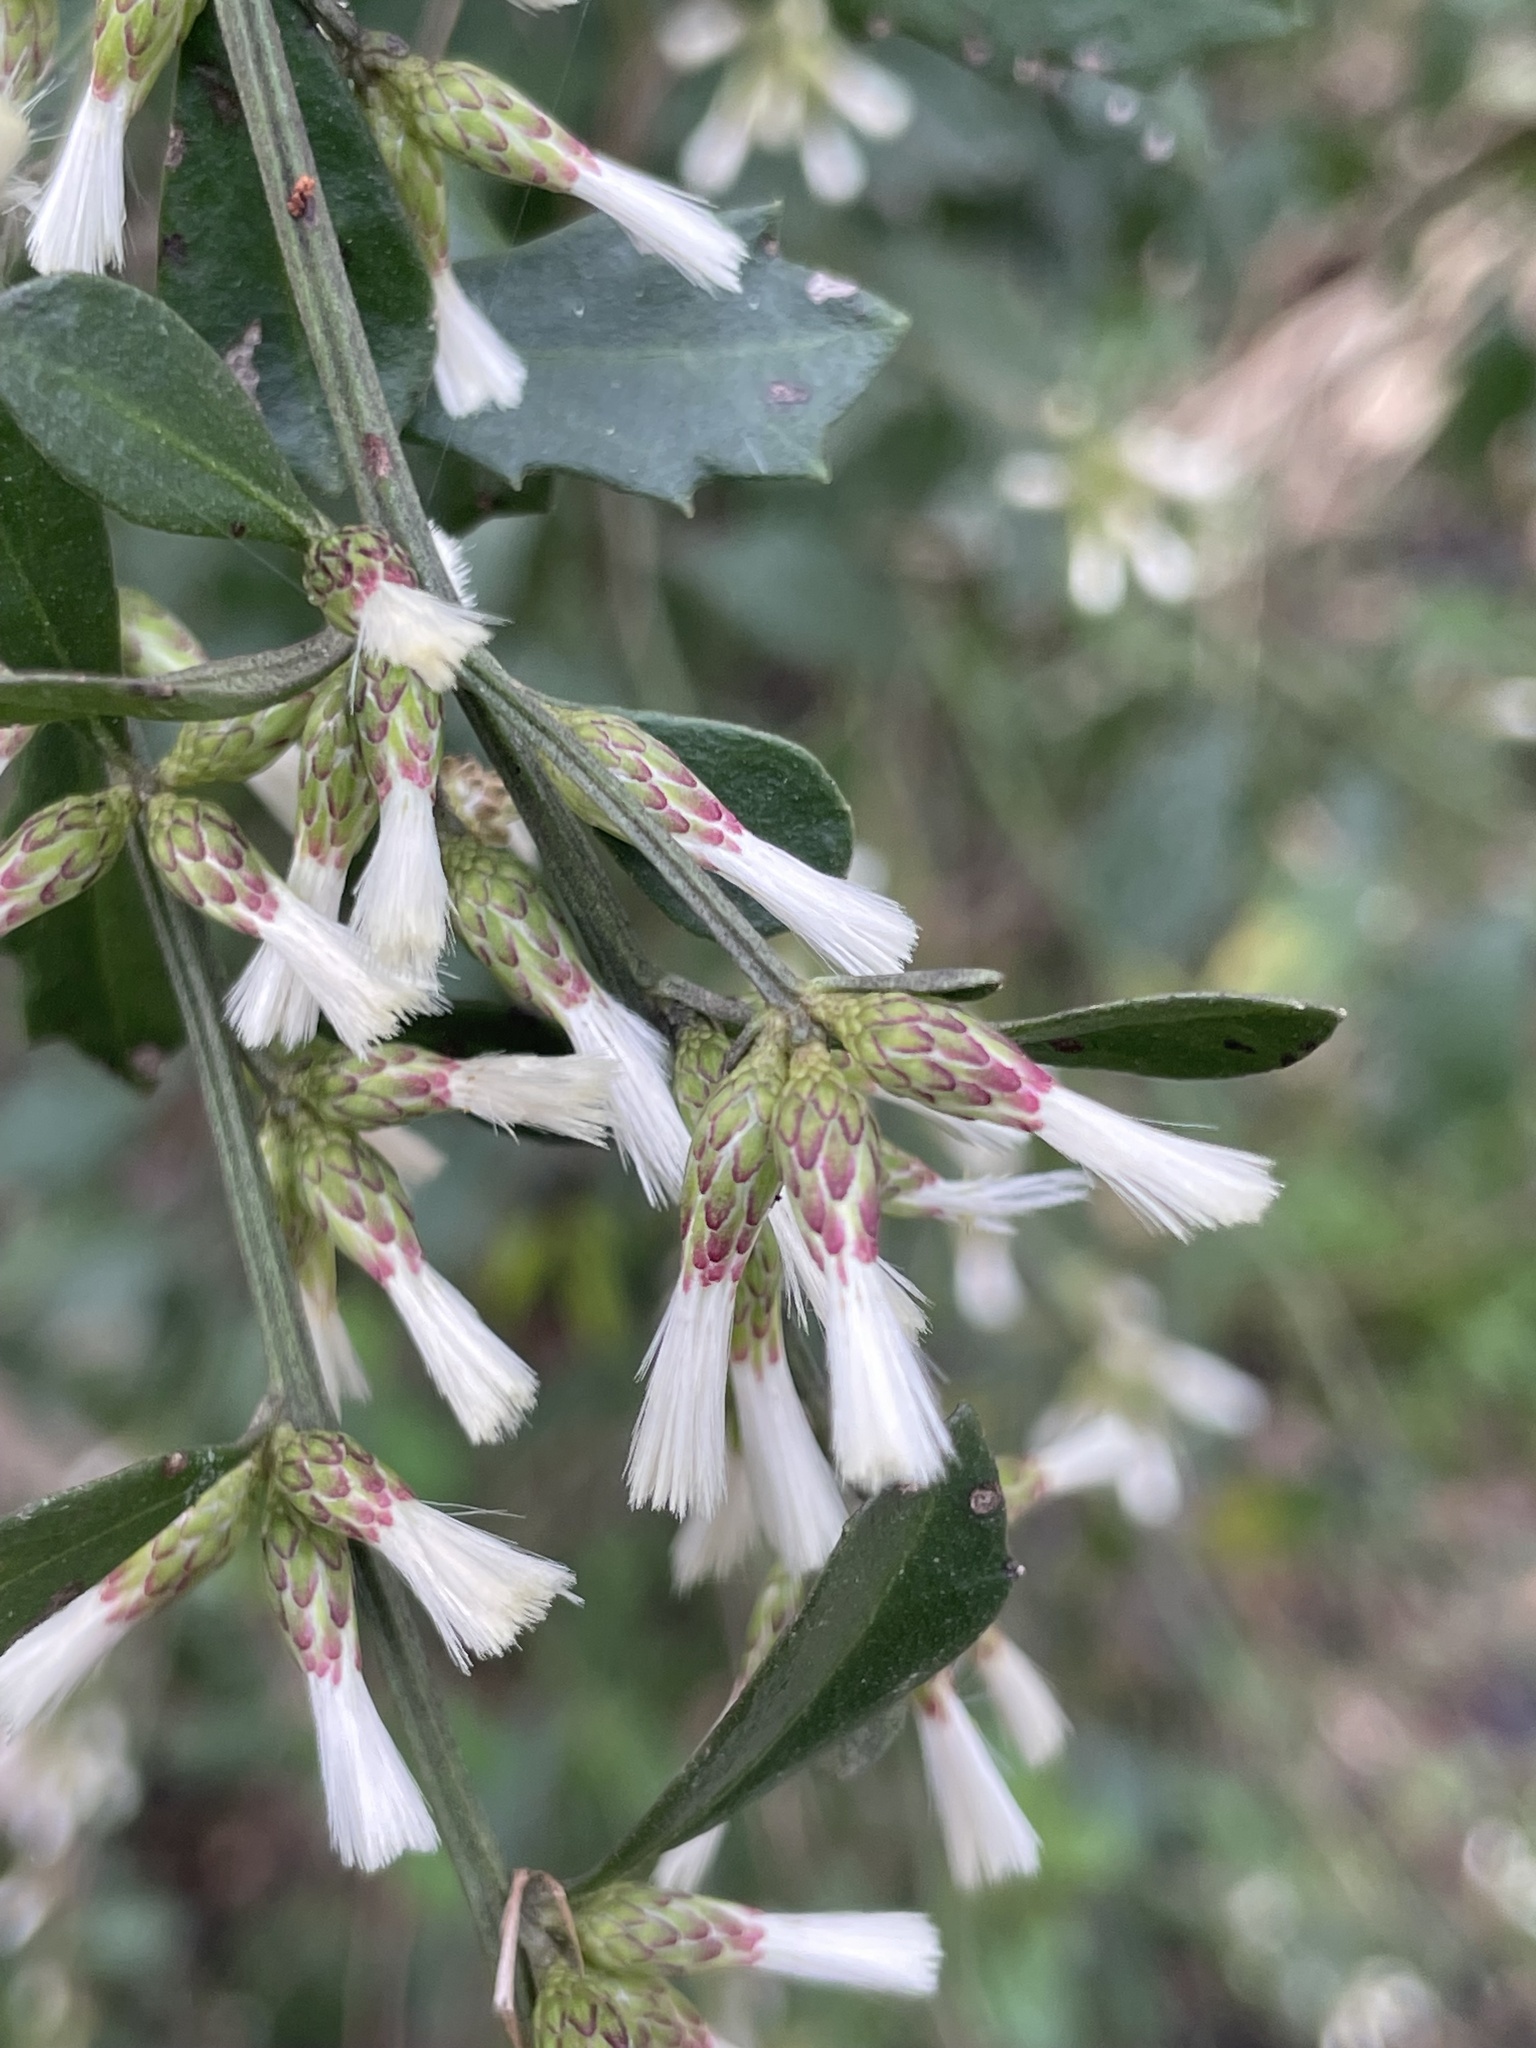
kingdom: Plantae
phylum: Tracheophyta
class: Magnoliopsida
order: Asterales
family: Asteraceae
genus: Baccharis
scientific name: Baccharis glomeruliflora
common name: Silverling groundsel bush
